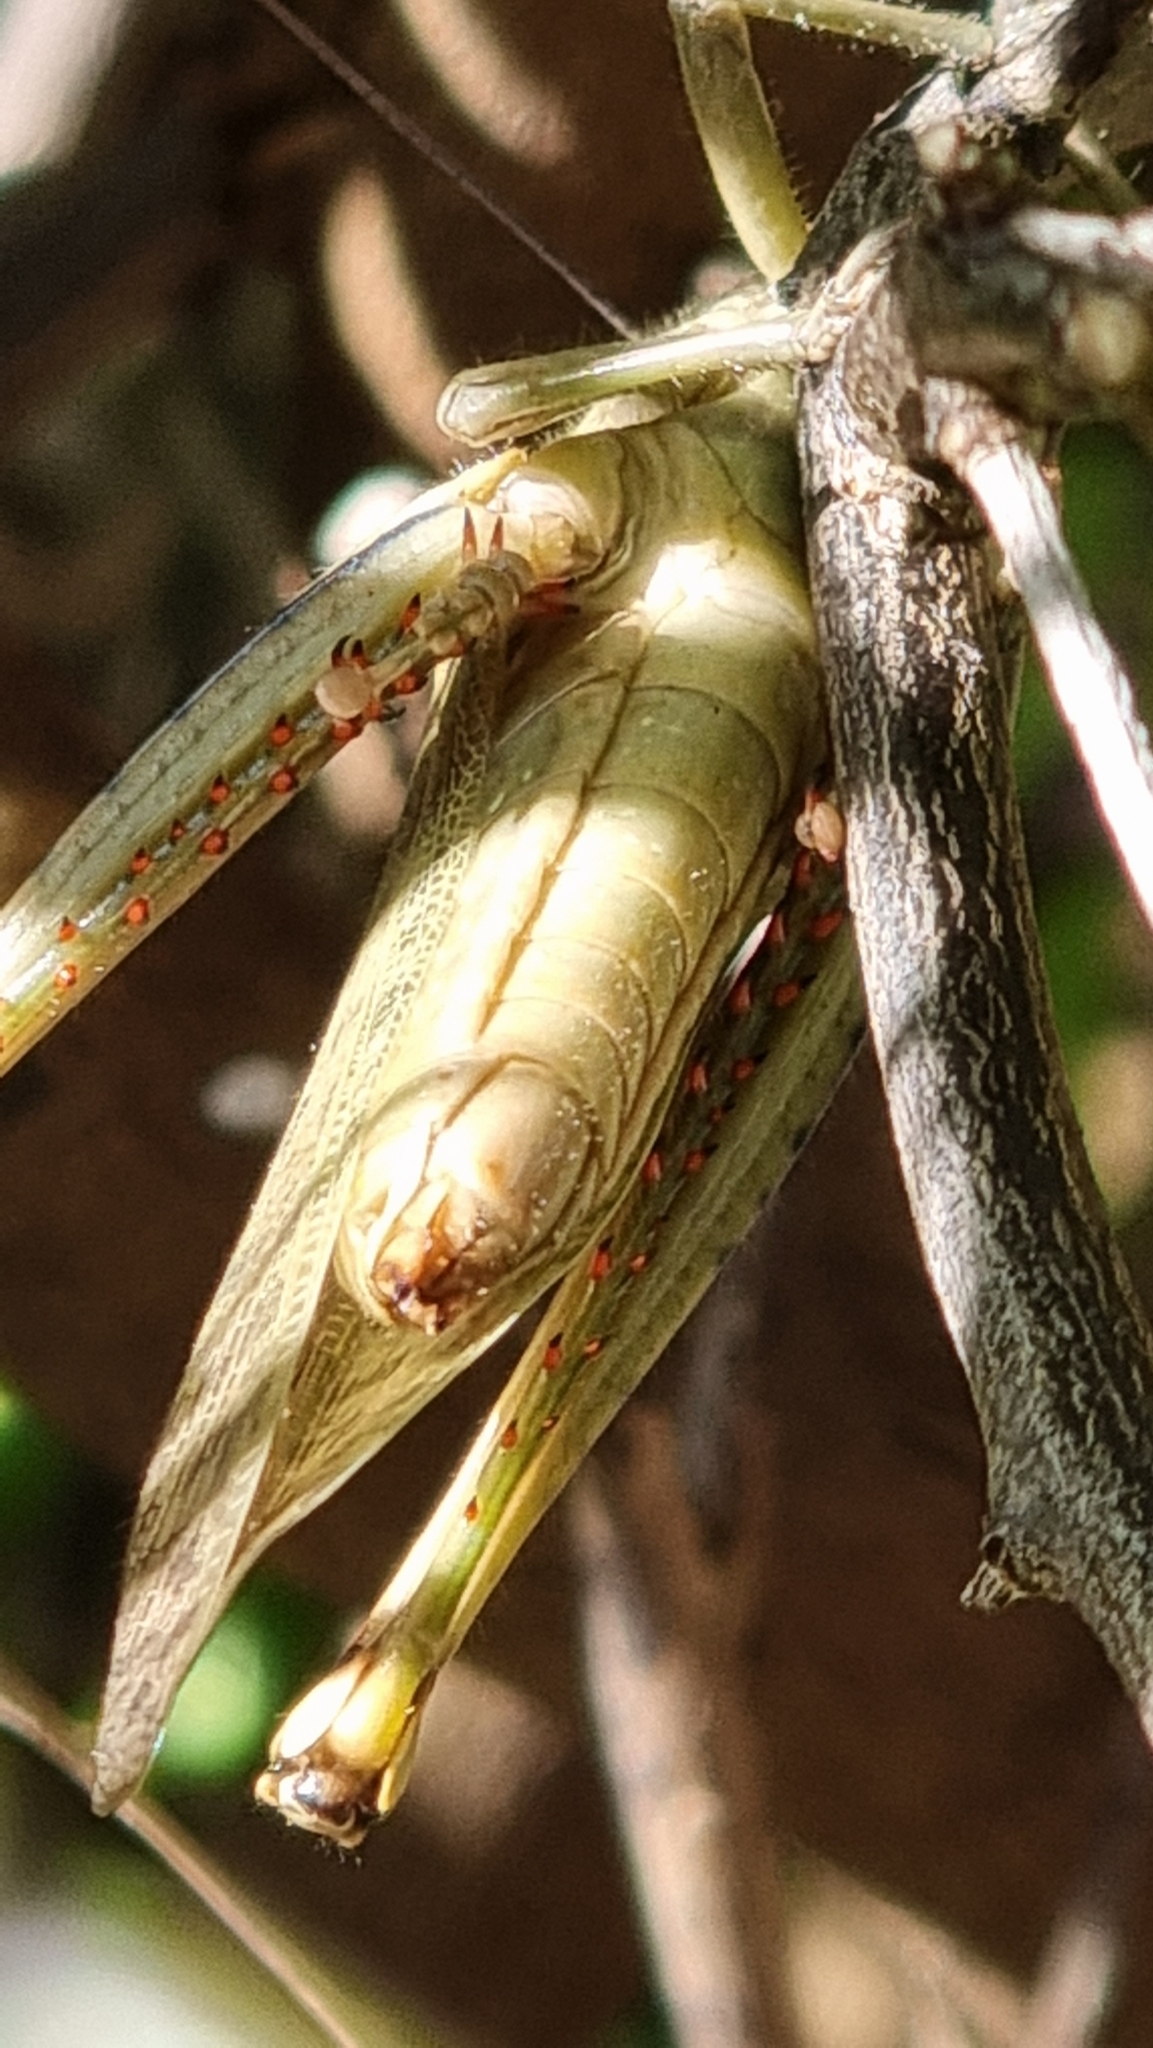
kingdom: Animalia
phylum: Arthropoda
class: Insecta
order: Orthoptera
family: Acrididae
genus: Valanga
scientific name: Valanga irregularis
